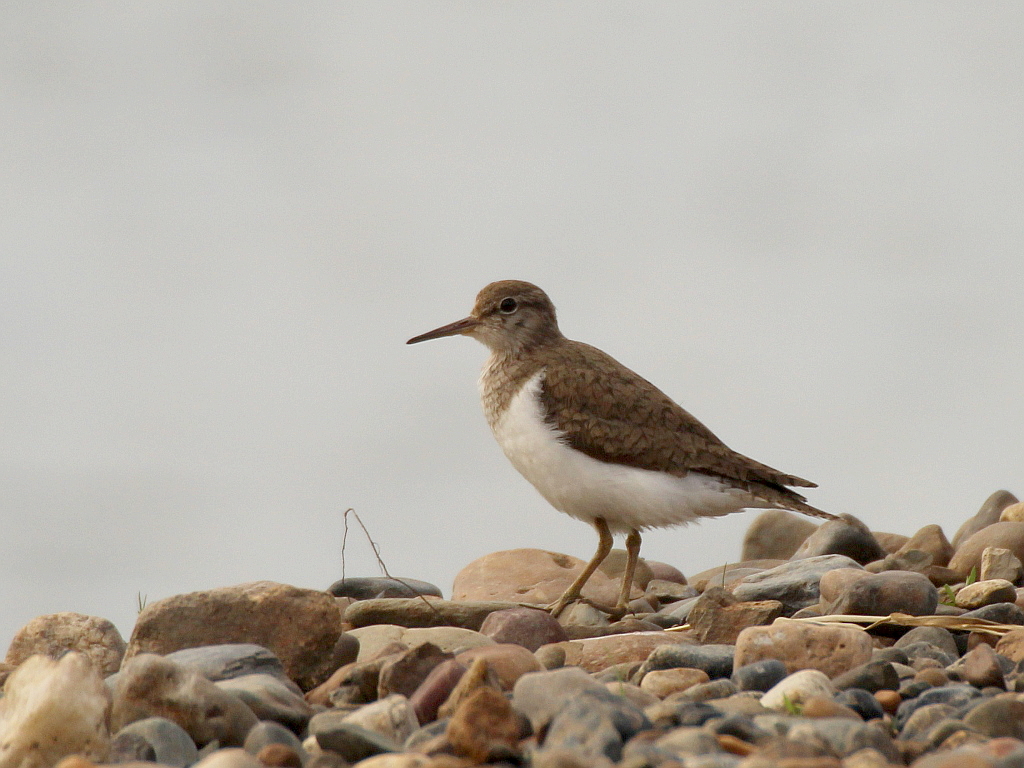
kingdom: Animalia
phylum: Chordata
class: Aves
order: Charadriiformes
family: Scolopacidae
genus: Actitis
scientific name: Actitis hypoleucos
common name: Common sandpiper
